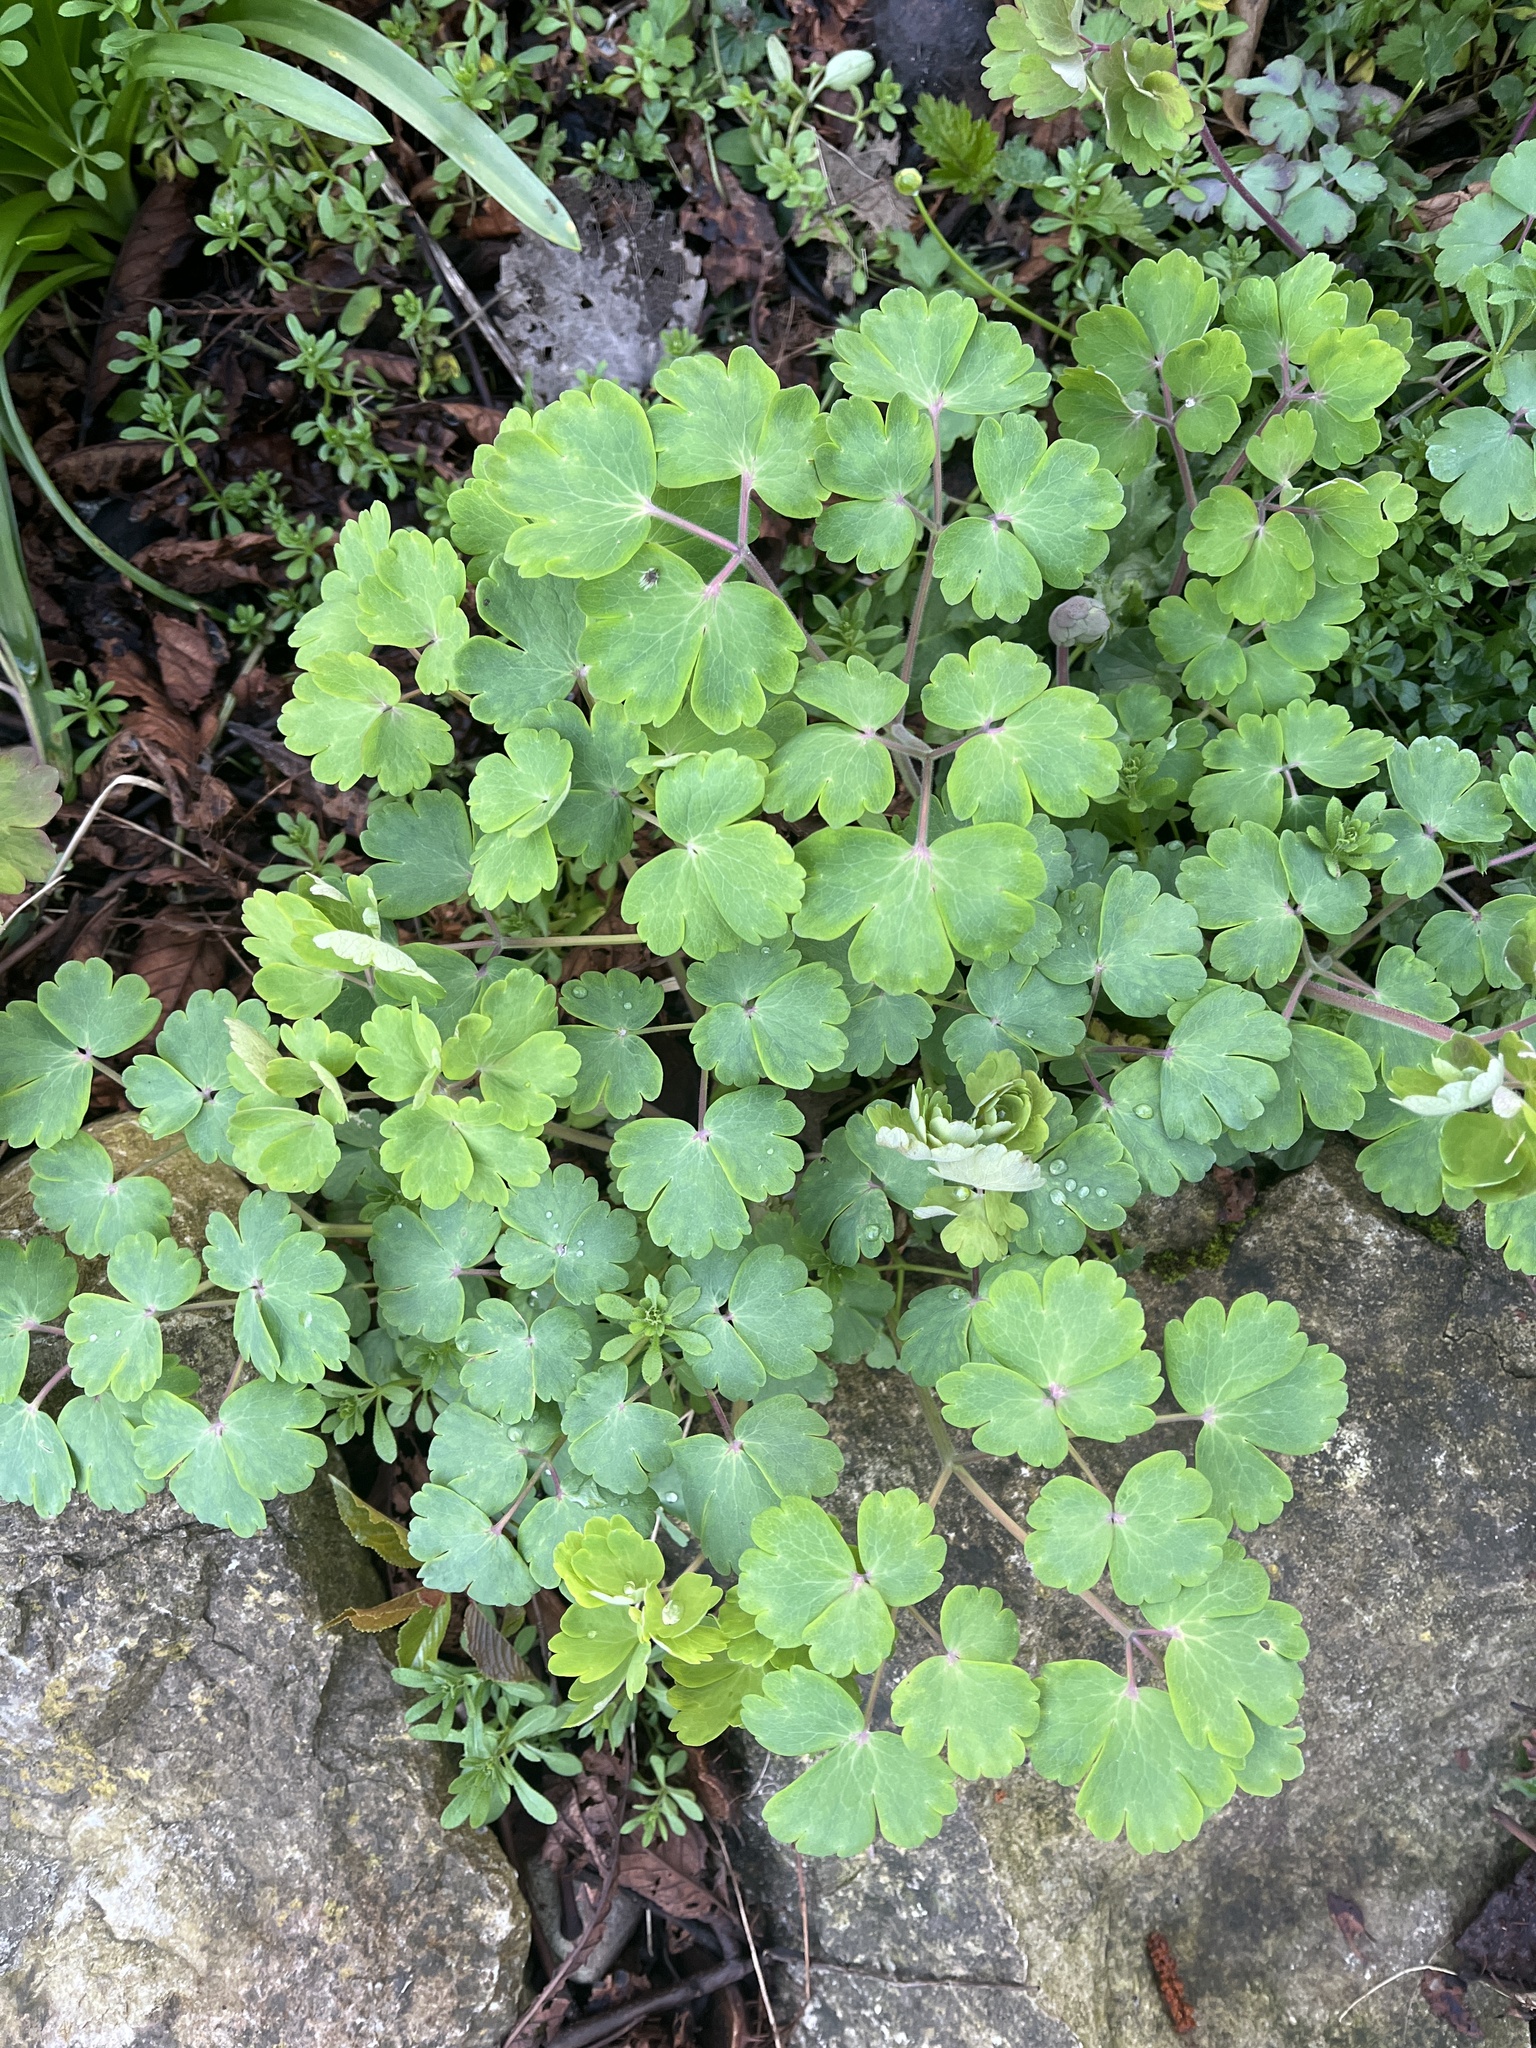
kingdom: Plantae
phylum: Tracheophyta
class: Magnoliopsida
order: Ranunculales
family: Ranunculaceae
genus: Aquilegia
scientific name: Aquilegia vulgaris
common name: Columbine
